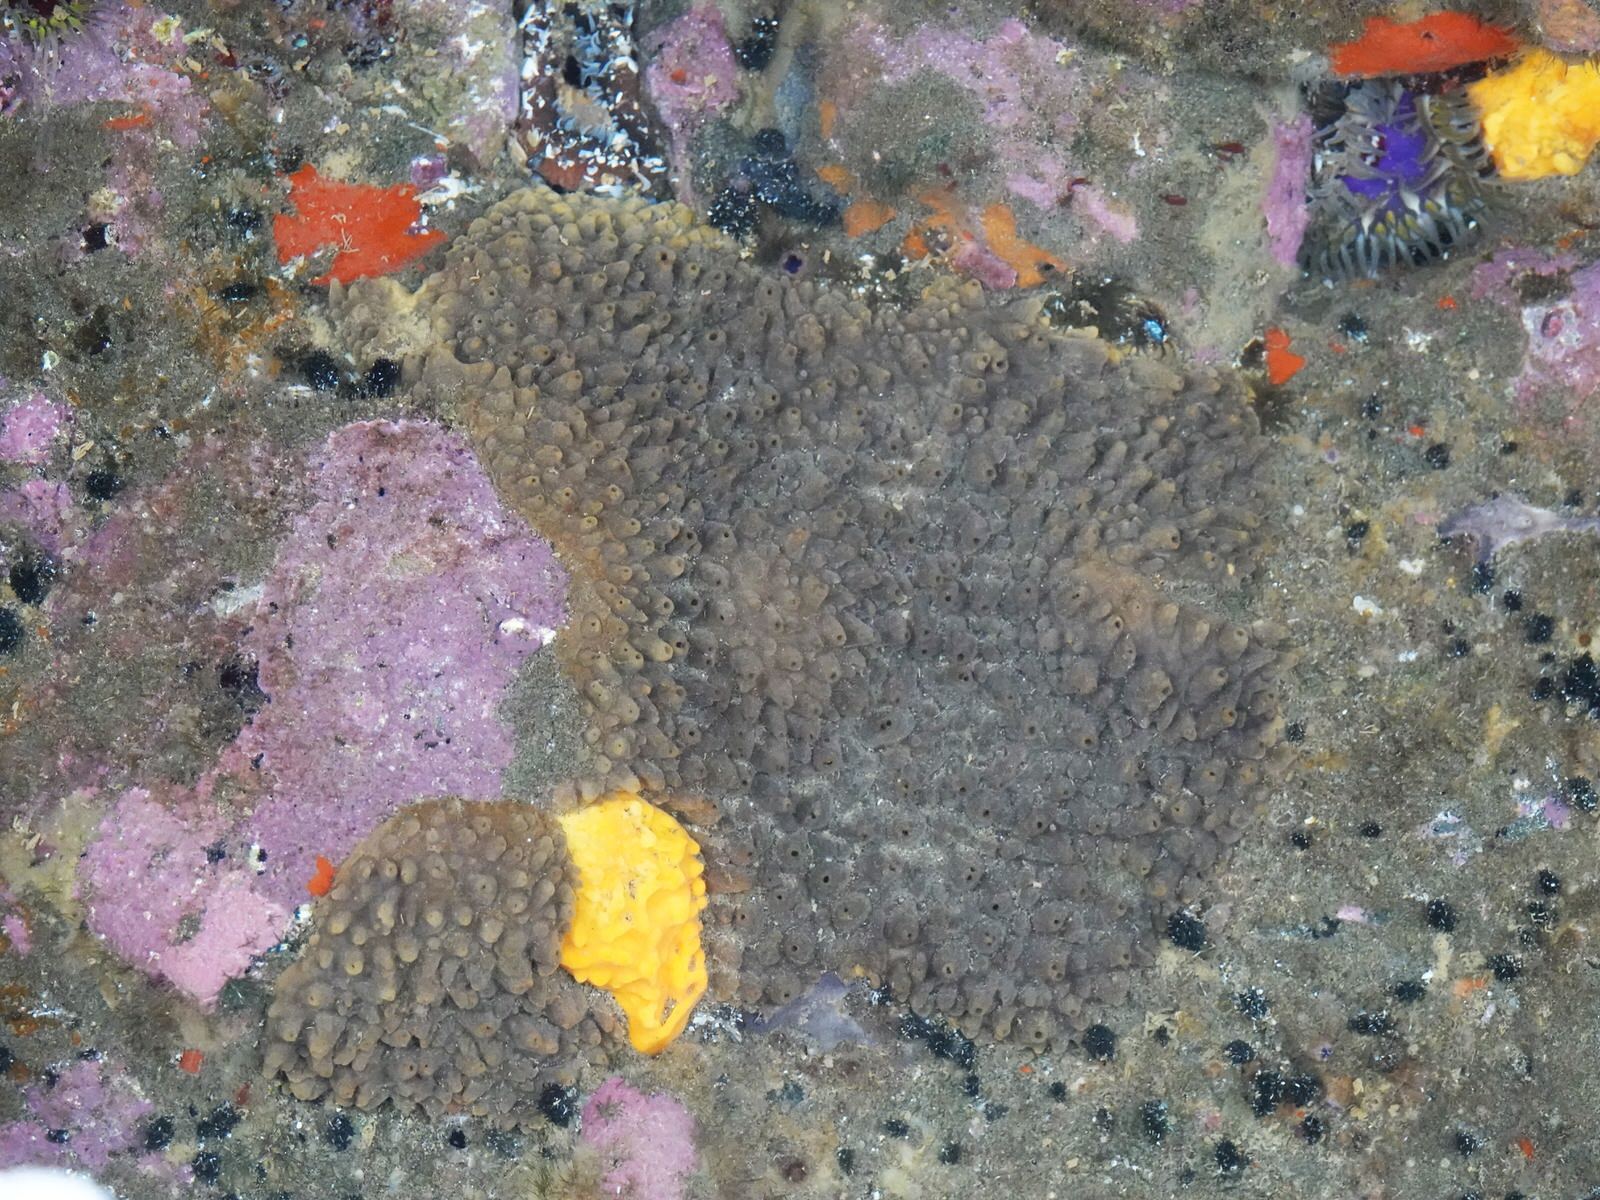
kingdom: Animalia
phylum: Porifera
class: Demospongiae
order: Biemnida
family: Biemnidae
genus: Biemna
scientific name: Biemna rufescens
